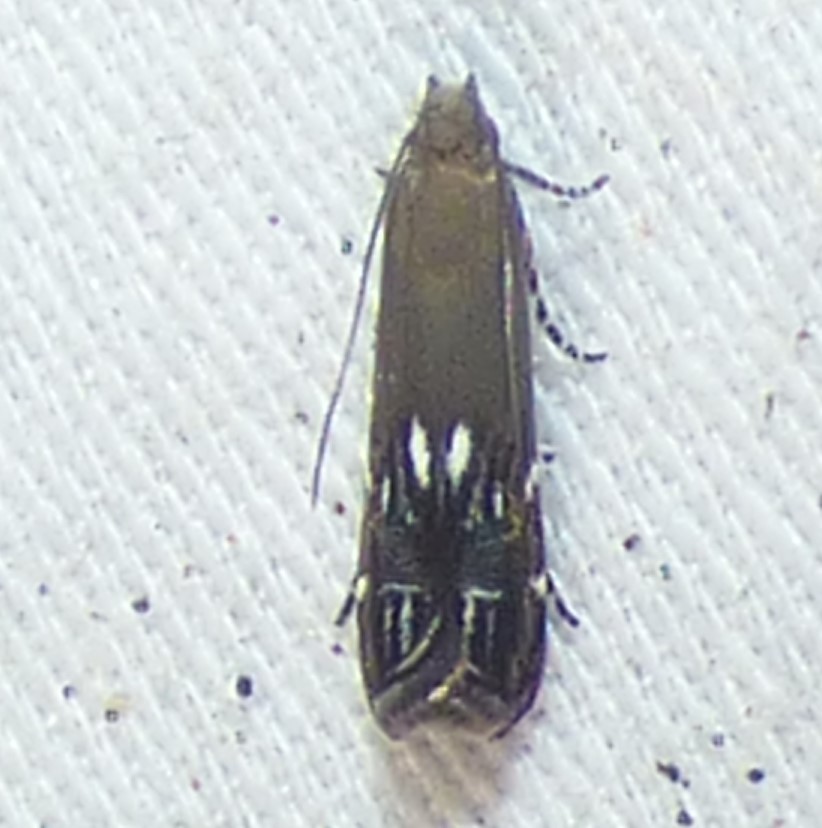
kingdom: Animalia
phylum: Arthropoda
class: Insecta
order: Lepidoptera
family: Gelechiidae
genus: Anacampsis
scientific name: Anacampsis levipedella
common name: Silver-dashed anacampsis
